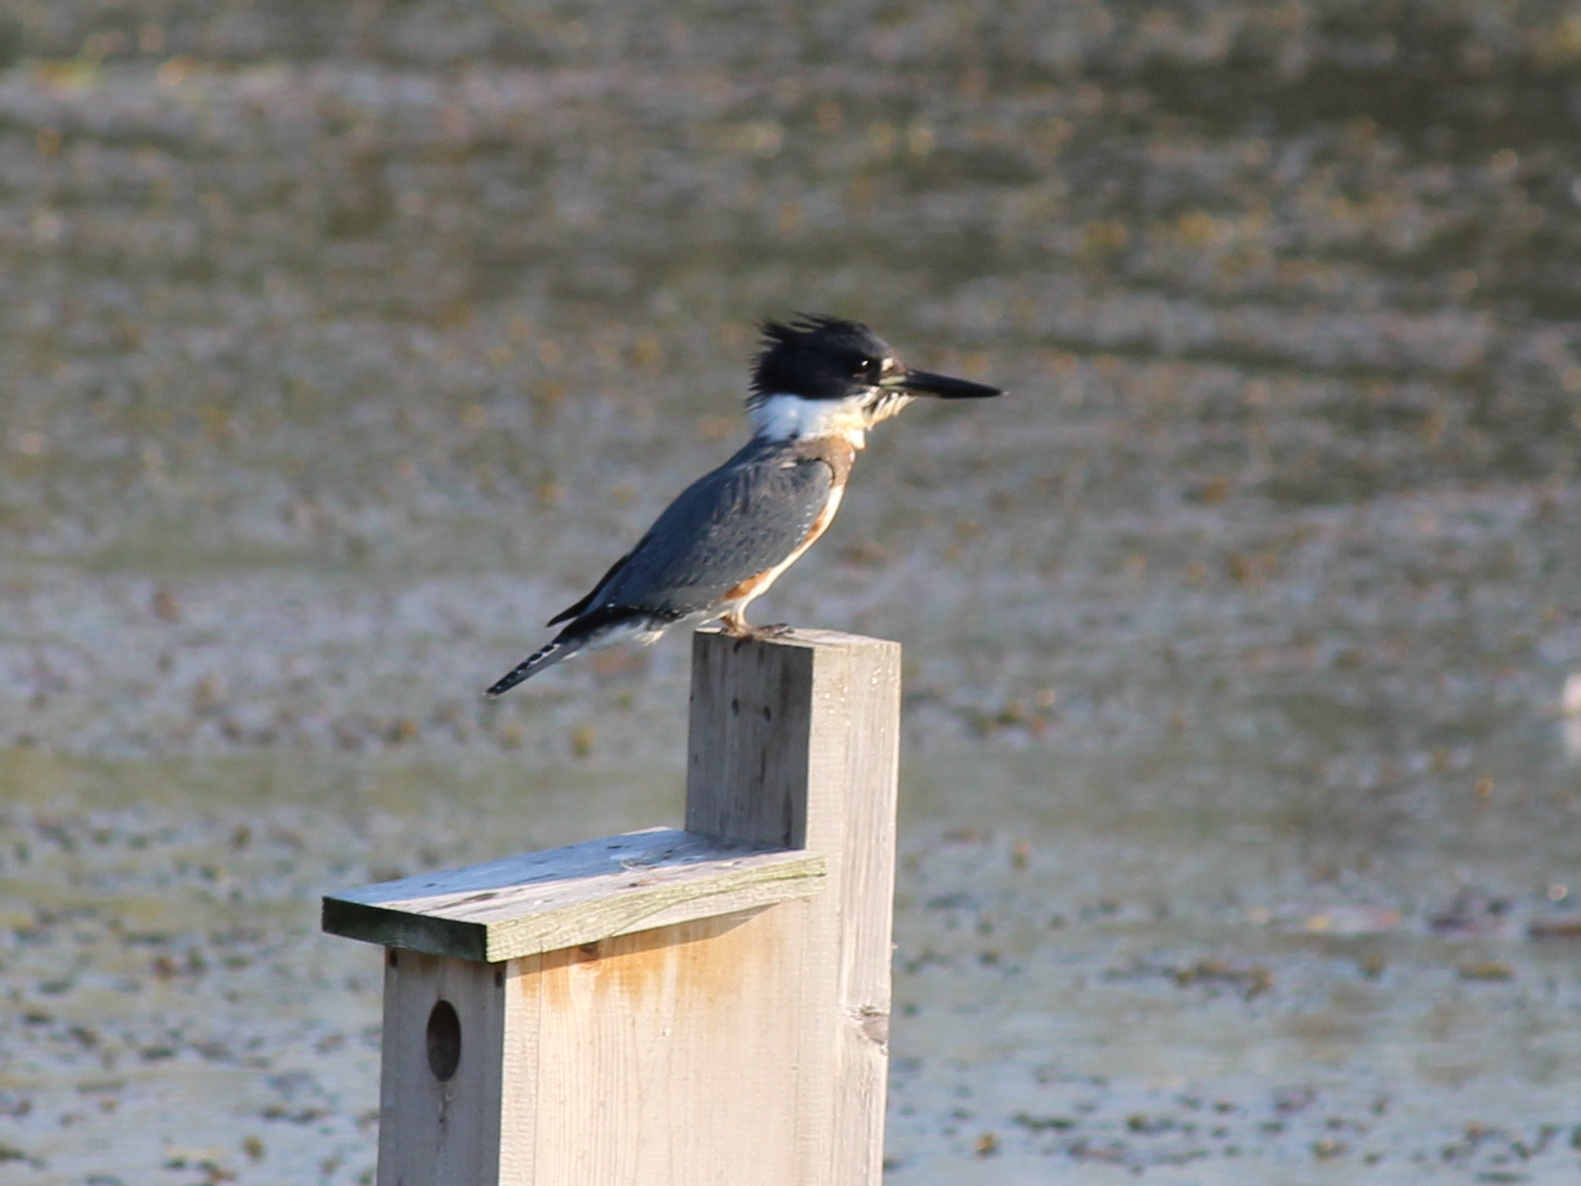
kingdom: Animalia
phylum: Chordata
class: Aves
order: Coraciiformes
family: Alcedinidae
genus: Megaceryle
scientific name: Megaceryle alcyon
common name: Belted kingfisher
